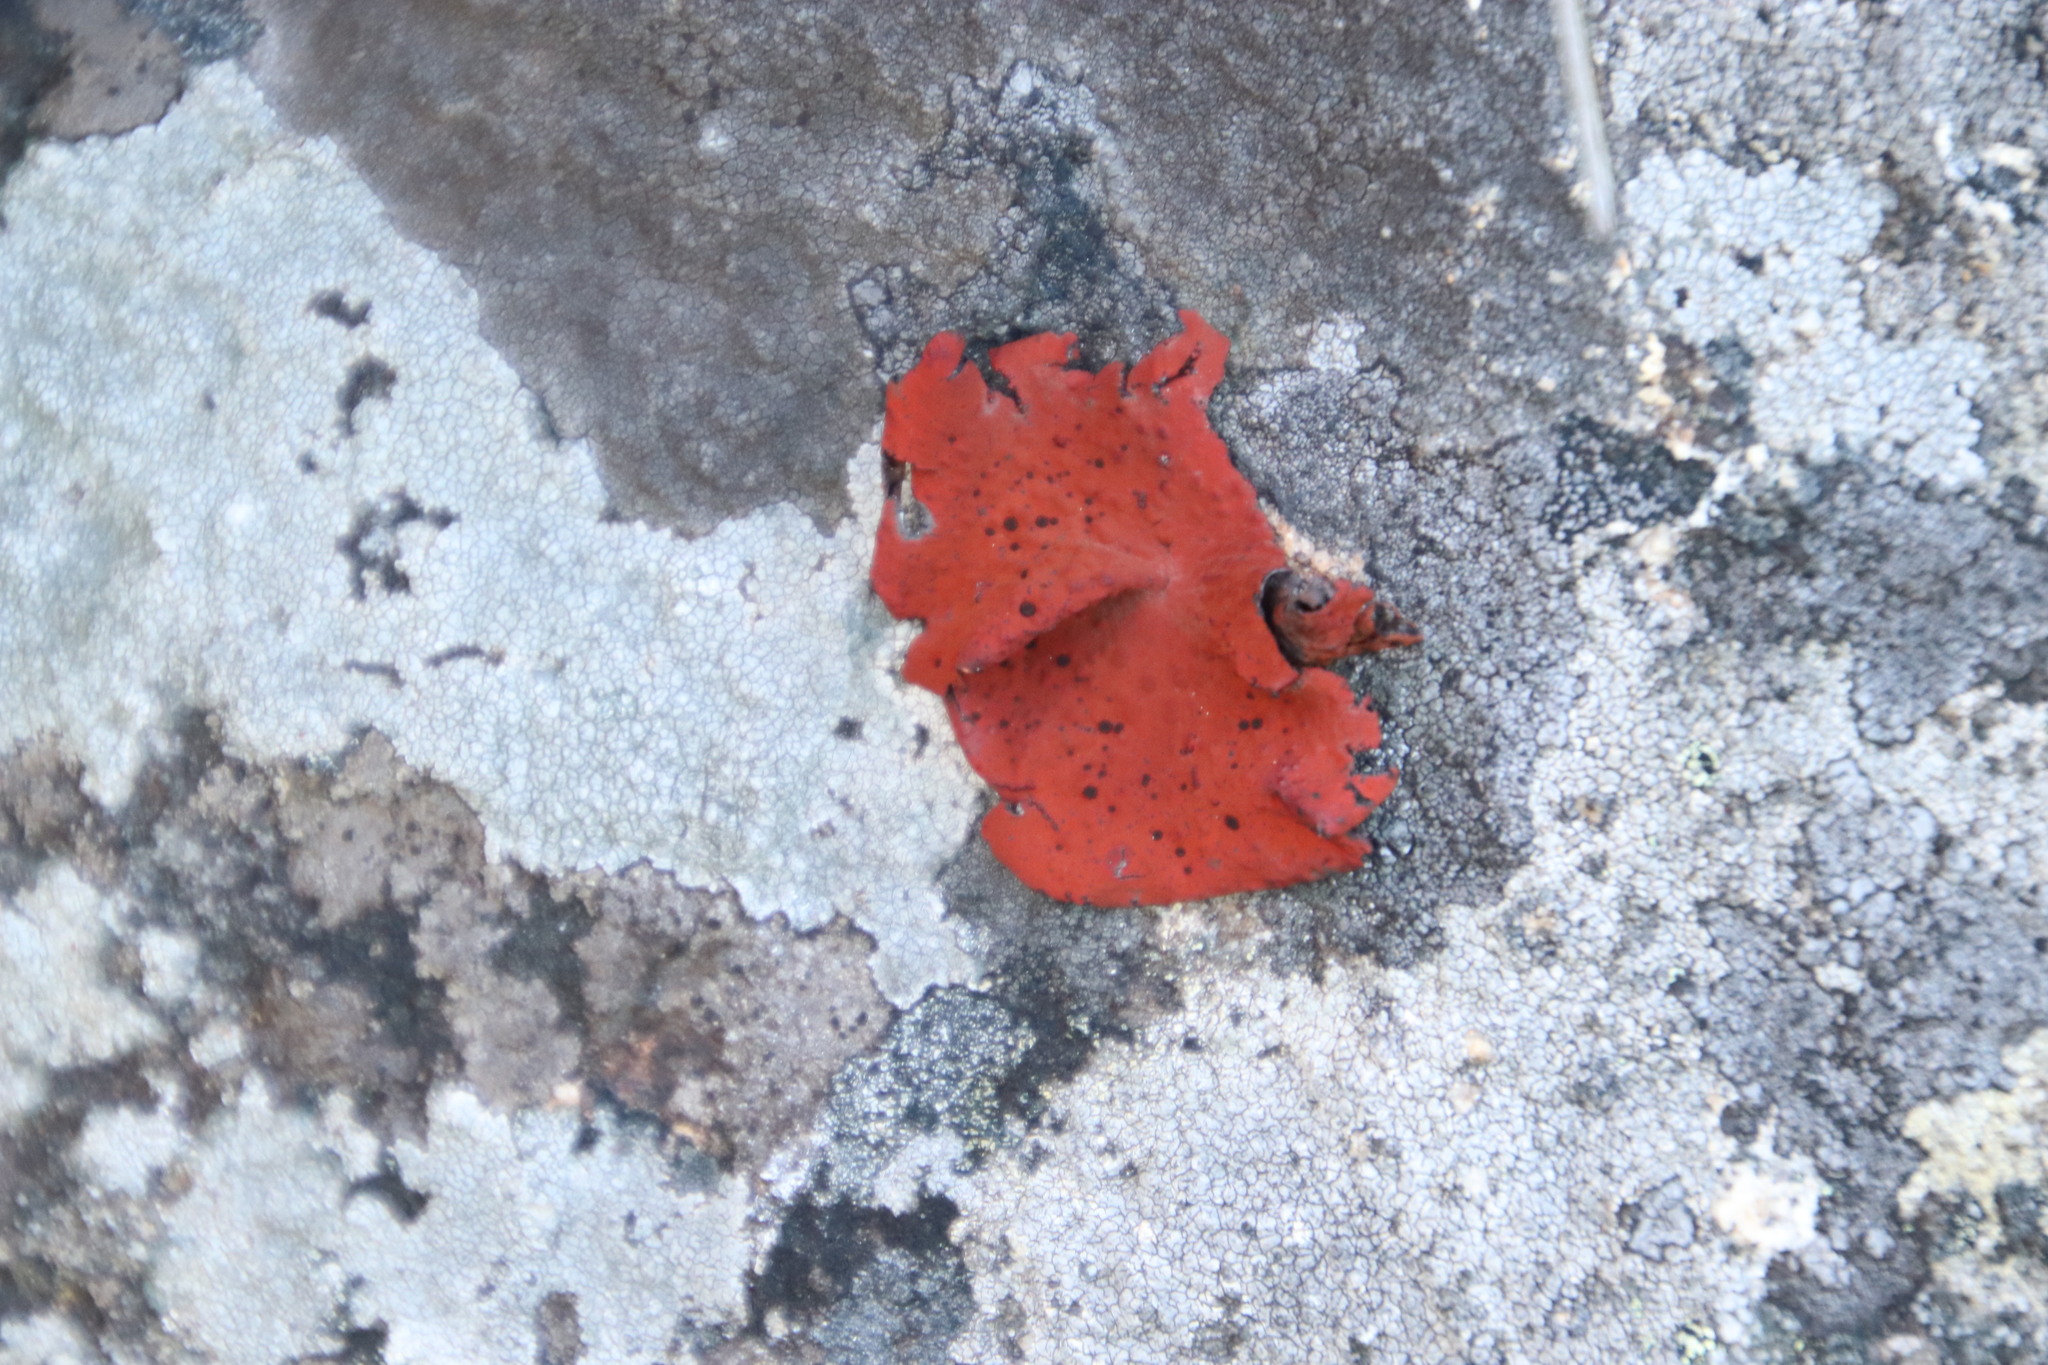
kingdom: Fungi
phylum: Ascomycota
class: Lecanoromycetes
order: Umbilicariales
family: Umbilicariaceae
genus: Lasallia
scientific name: Lasallia rubiginosa
